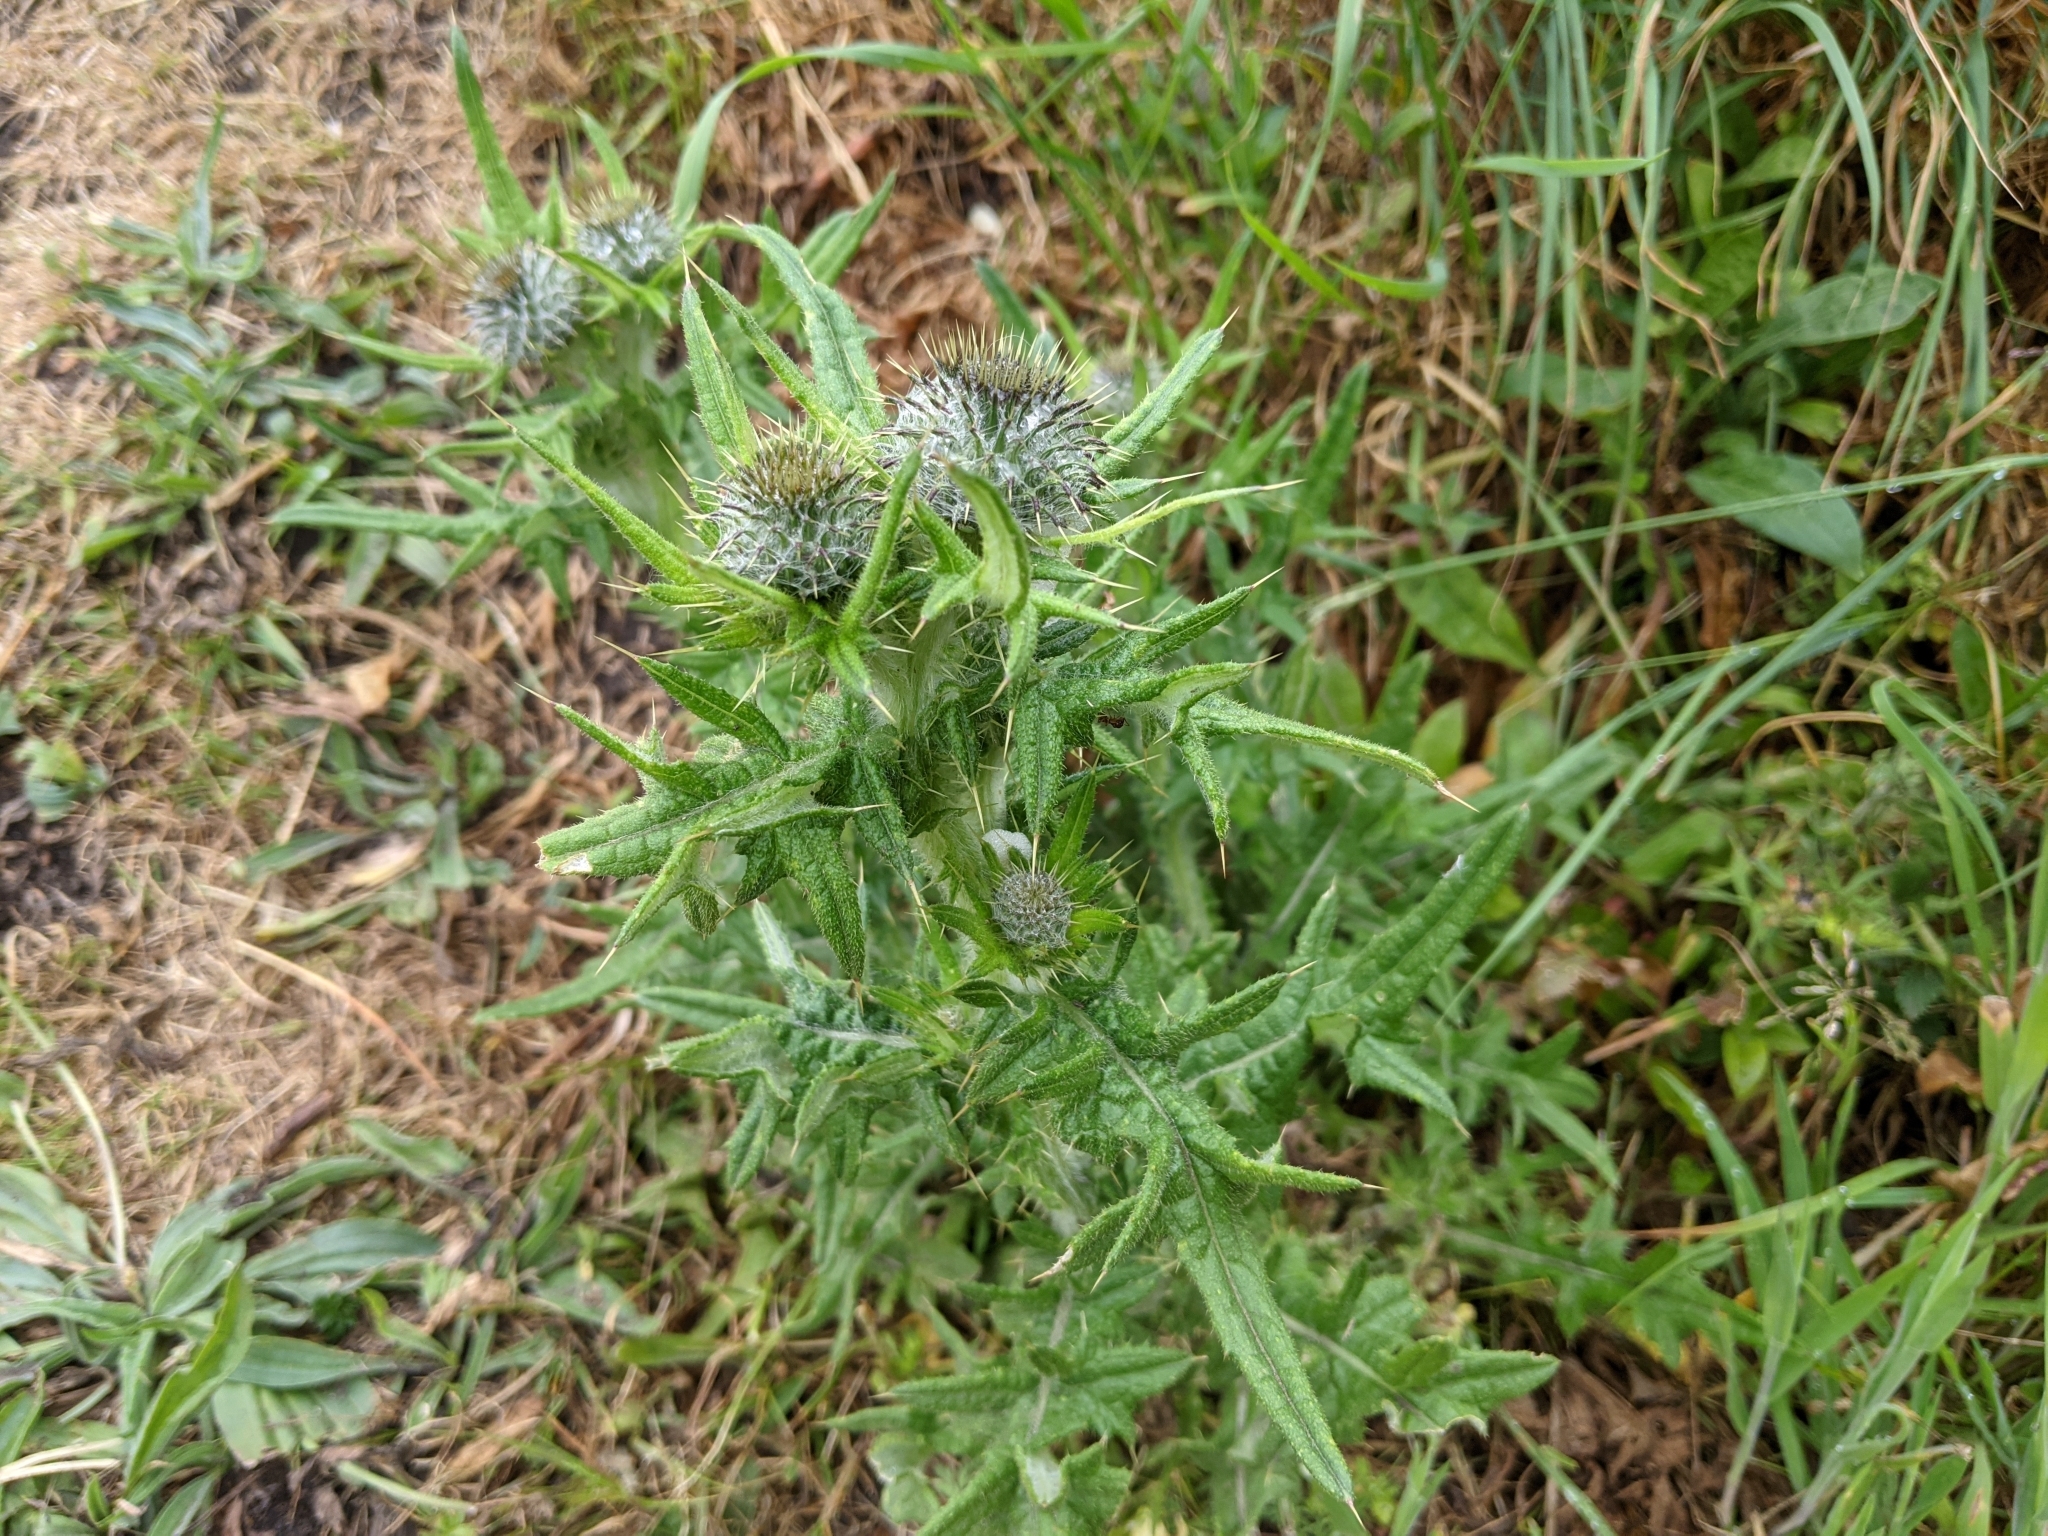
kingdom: Plantae
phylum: Tracheophyta
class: Magnoliopsida
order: Asterales
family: Asteraceae
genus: Cirsium
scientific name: Cirsium vulgare
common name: Bull thistle
